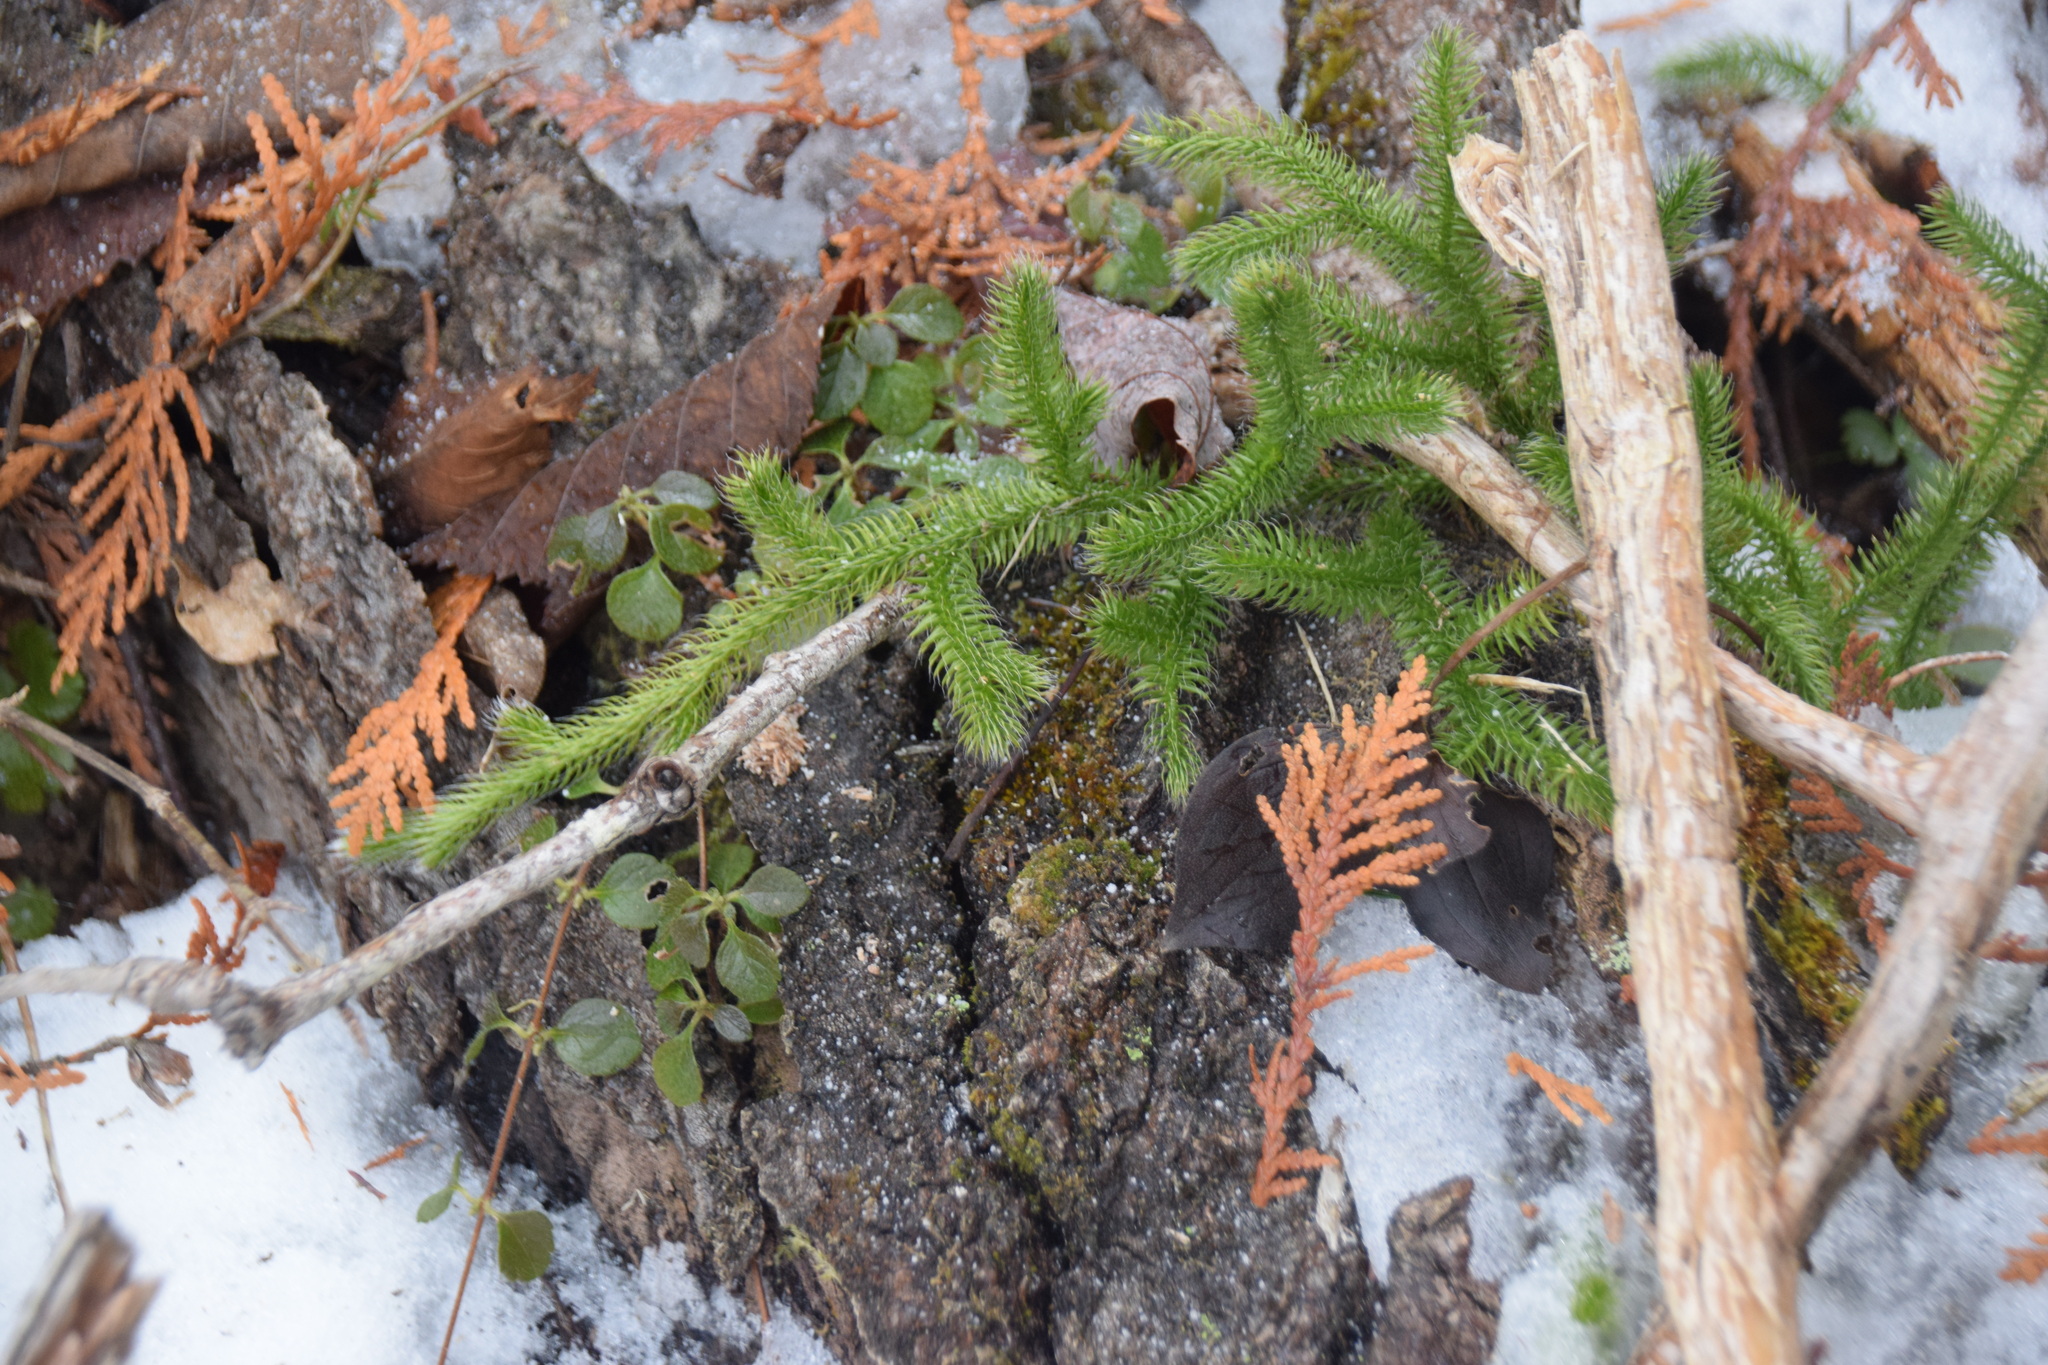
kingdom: Plantae
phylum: Tracheophyta
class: Lycopodiopsida
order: Lycopodiales
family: Lycopodiaceae
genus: Lycopodium
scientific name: Lycopodium clavatum
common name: Stag's-horn clubmoss
